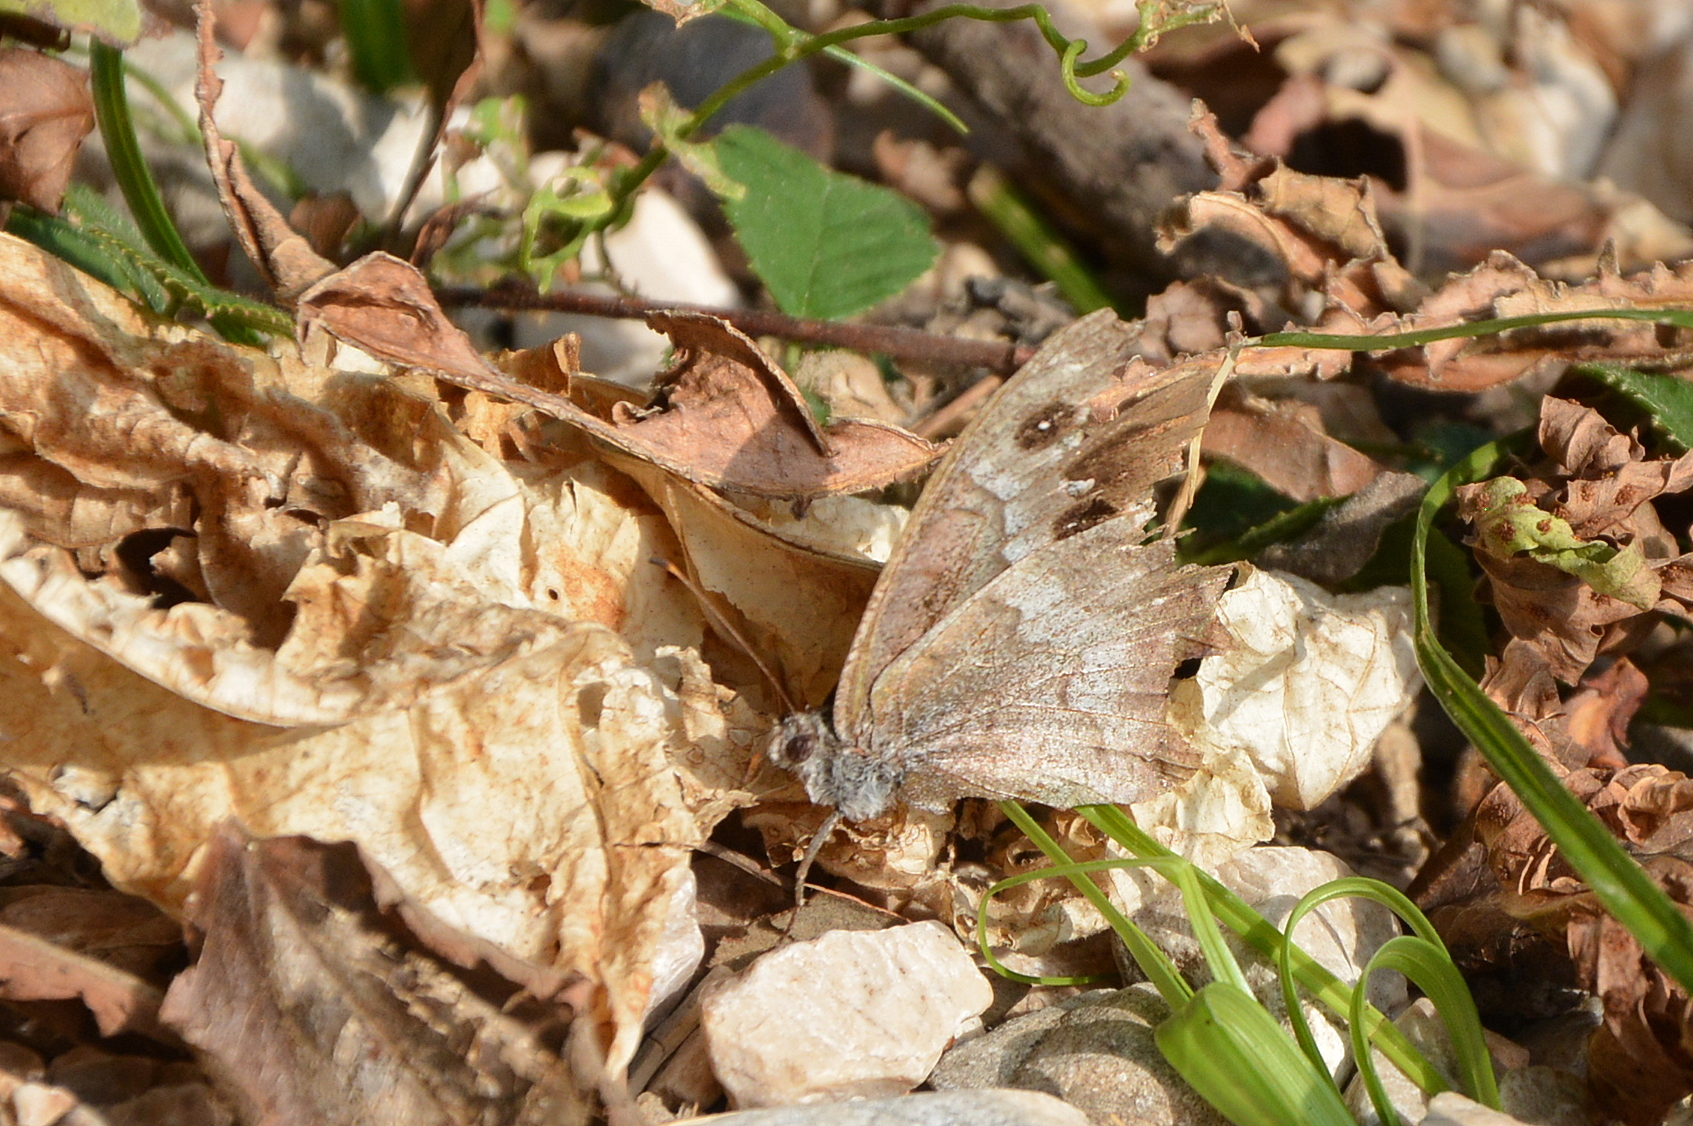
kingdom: Animalia
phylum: Arthropoda
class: Insecta
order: Lepidoptera
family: Nymphalidae
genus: Hipparchia
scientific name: Hipparchia statilinus
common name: Tree grayling
